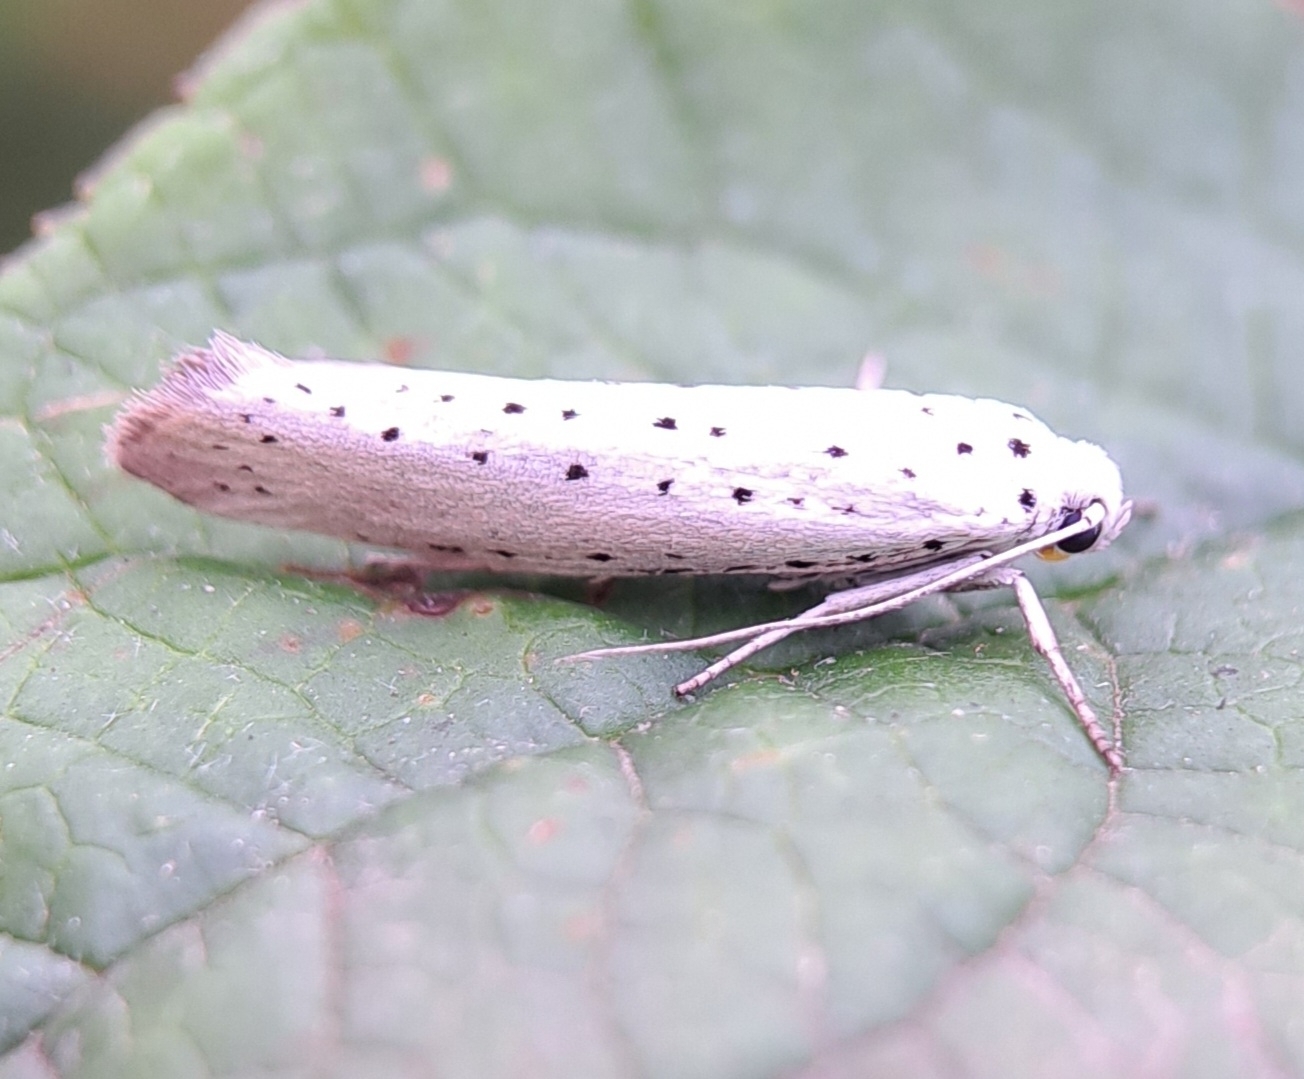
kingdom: Animalia
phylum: Arthropoda
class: Insecta
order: Lepidoptera
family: Yponomeutidae
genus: Yponomeuta
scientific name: Yponomeuta
